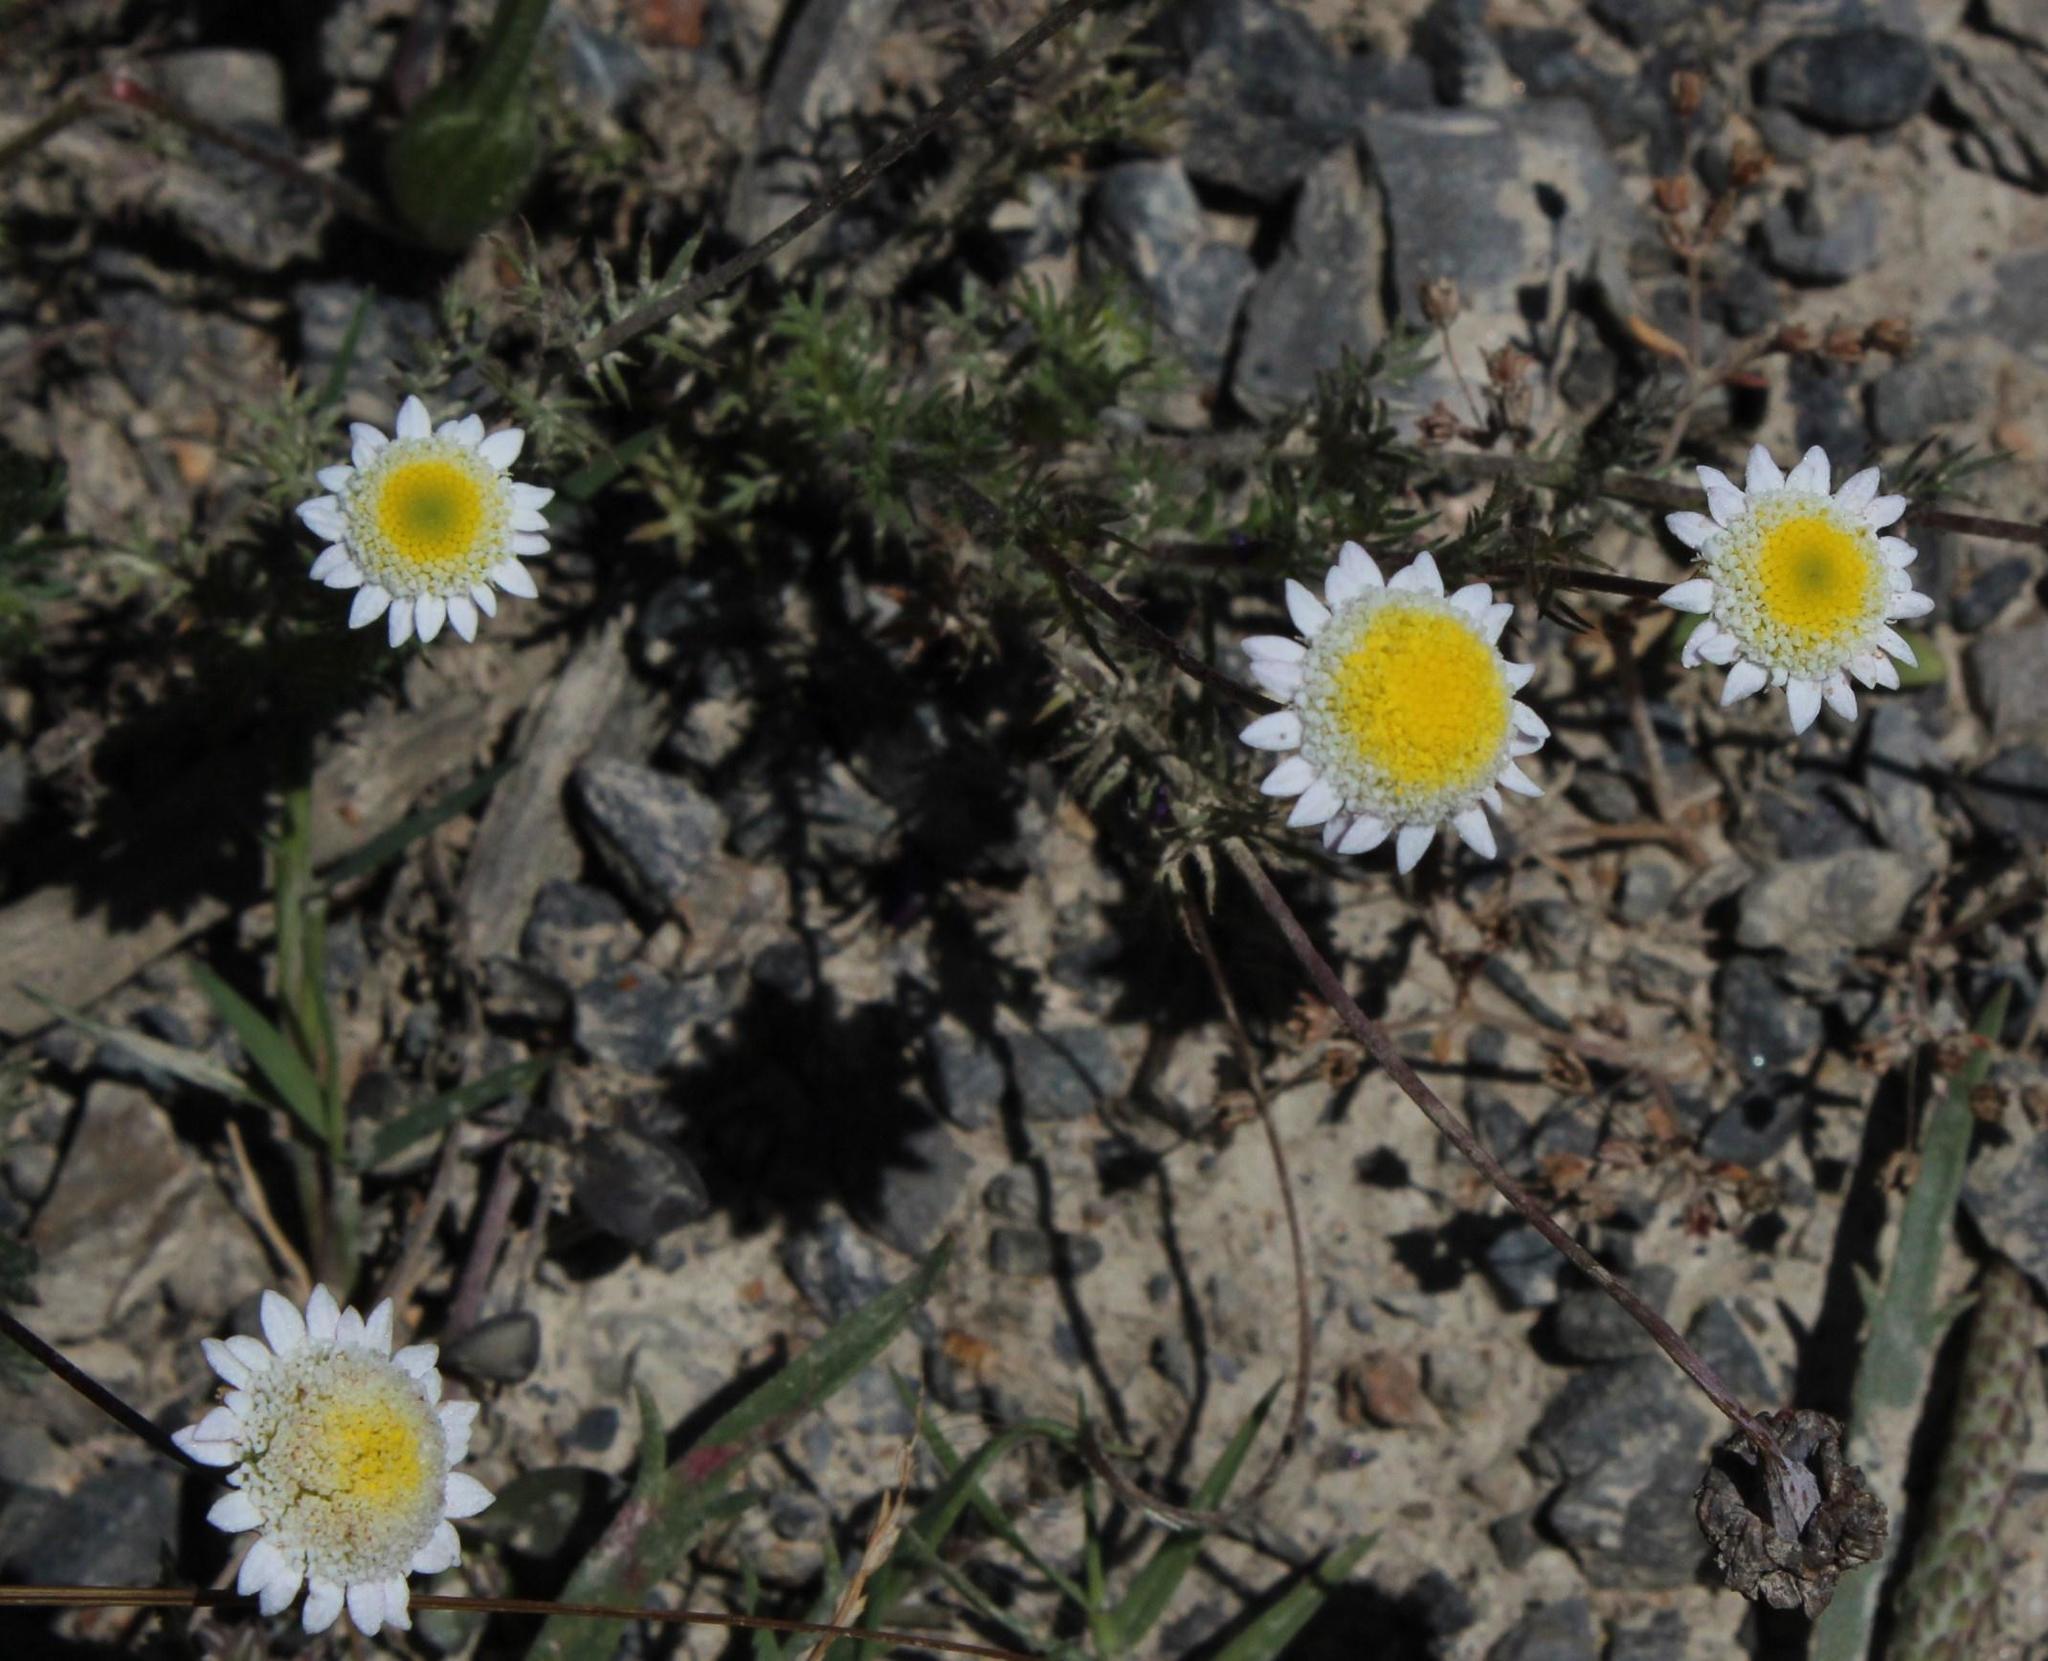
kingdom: Plantae
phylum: Tracheophyta
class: Magnoliopsida
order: Asterales
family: Asteraceae
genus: Cotula
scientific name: Cotula turbinata
